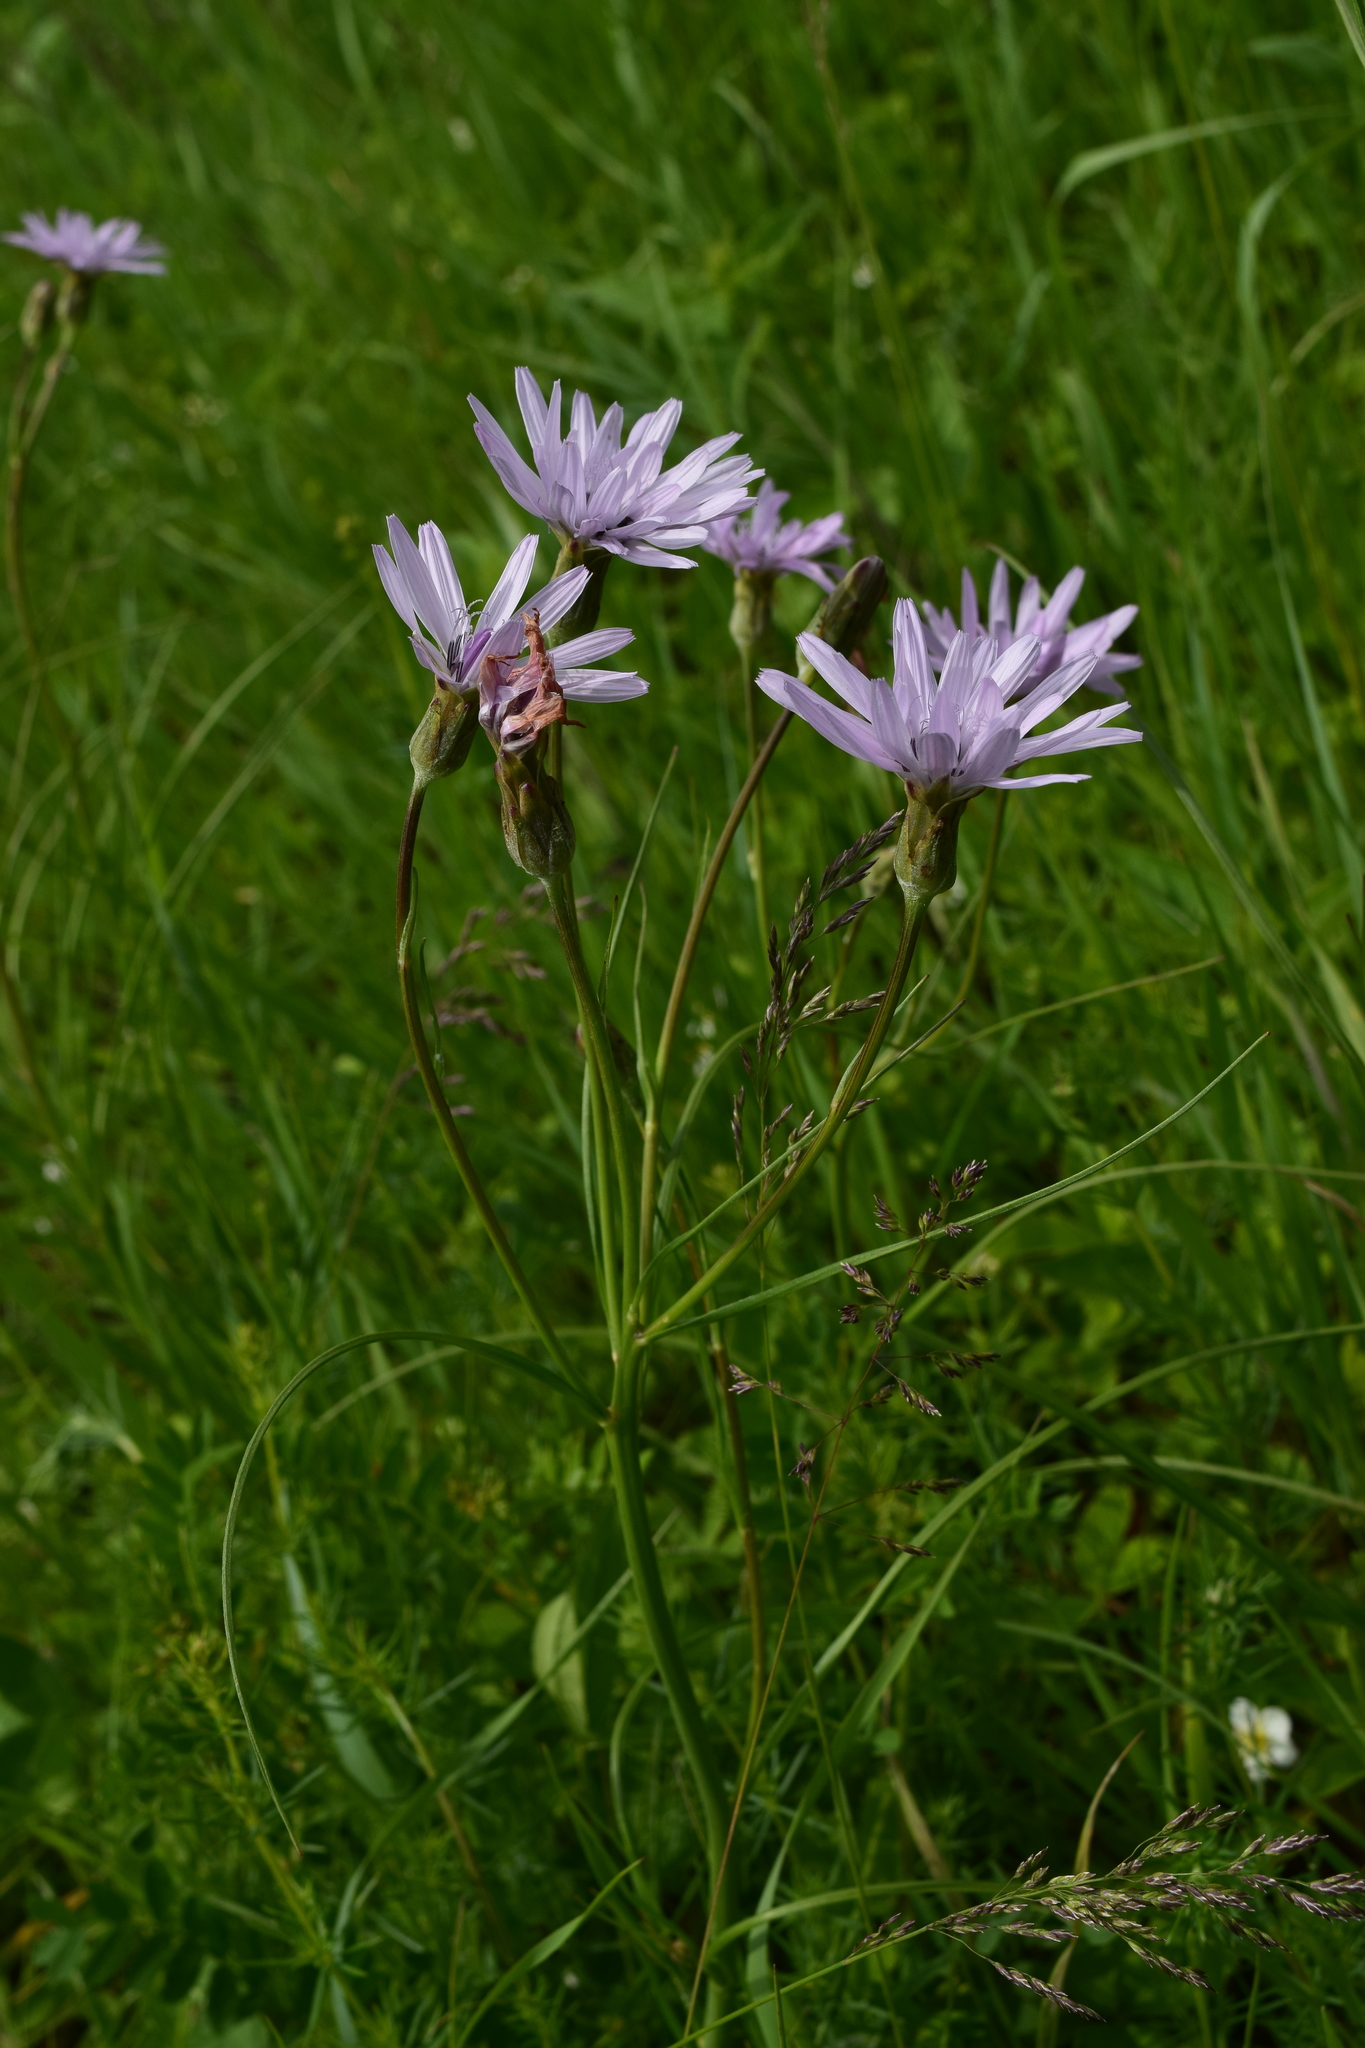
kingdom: Plantae
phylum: Tracheophyta
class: Magnoliopsida
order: Asterales
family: Asteraceae
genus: Scorzonera
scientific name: Scorzonera purpurea
